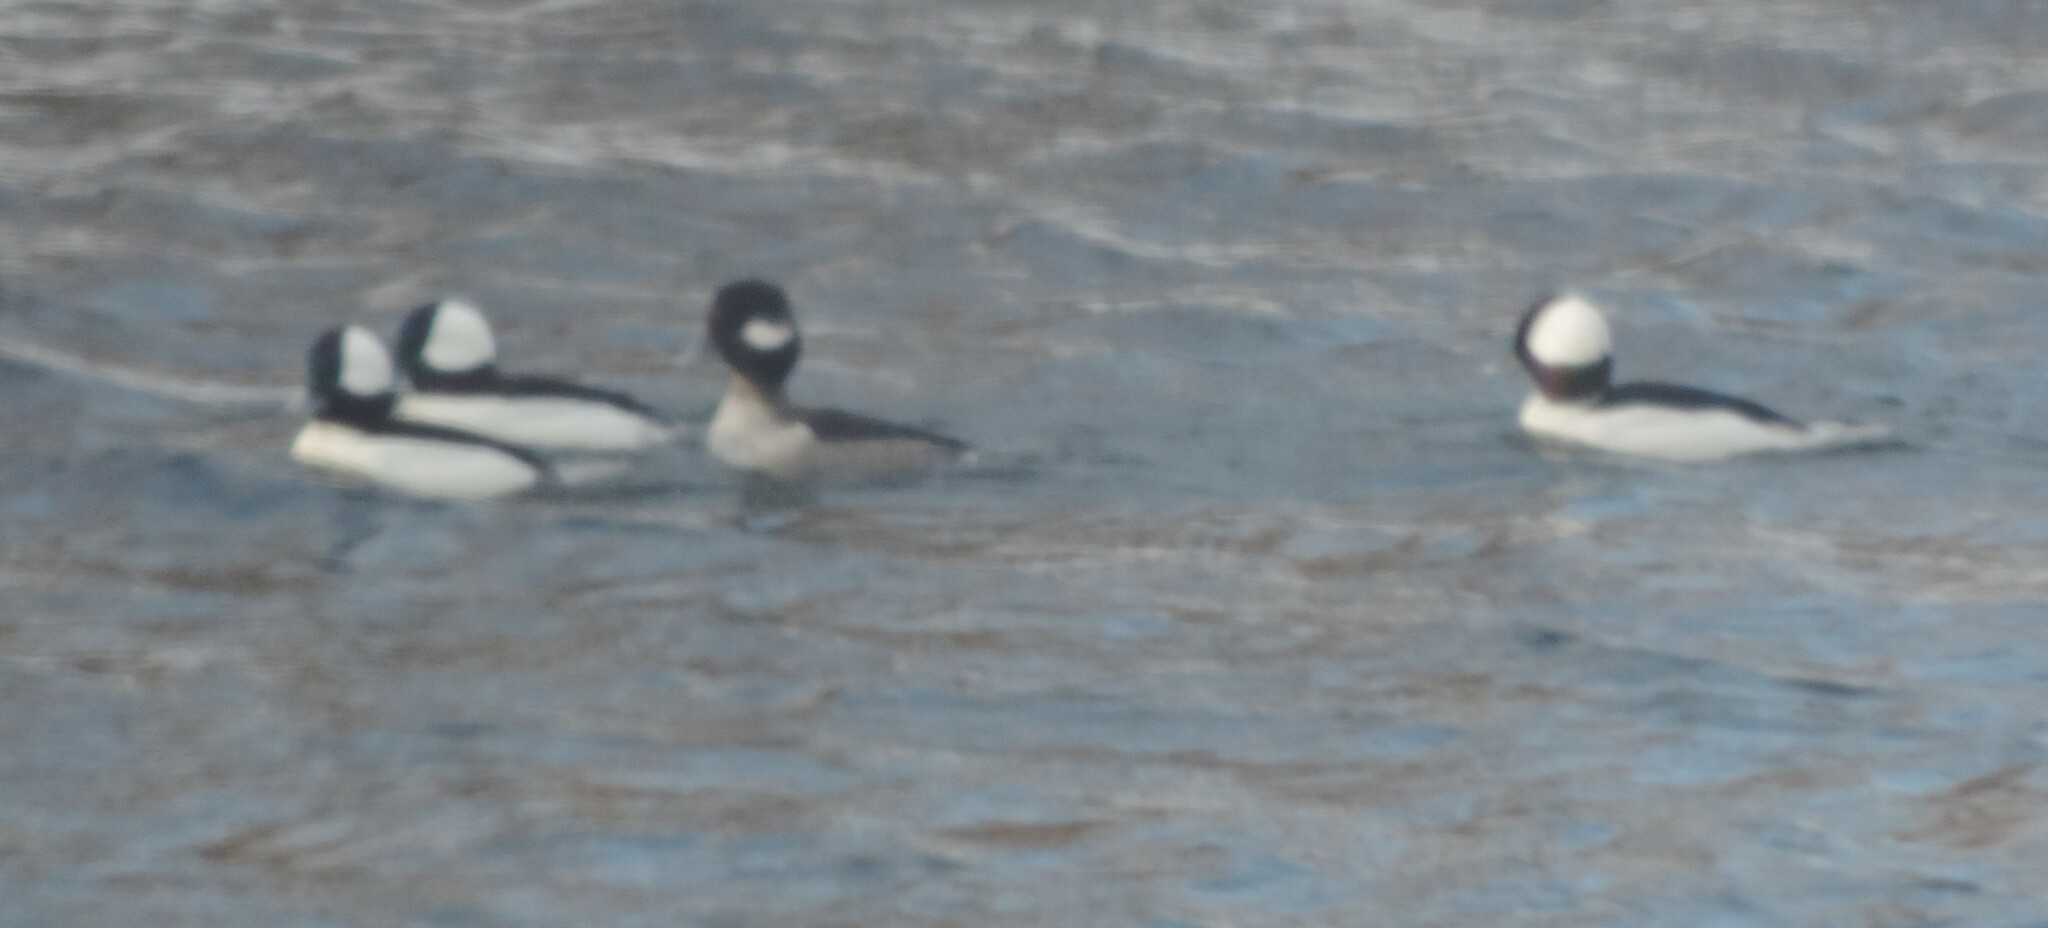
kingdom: Animalia
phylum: Chordata
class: Aves
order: Anseriformes
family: Anatidae
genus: Bucephala
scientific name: Bucephala albeola
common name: Bufflehead
